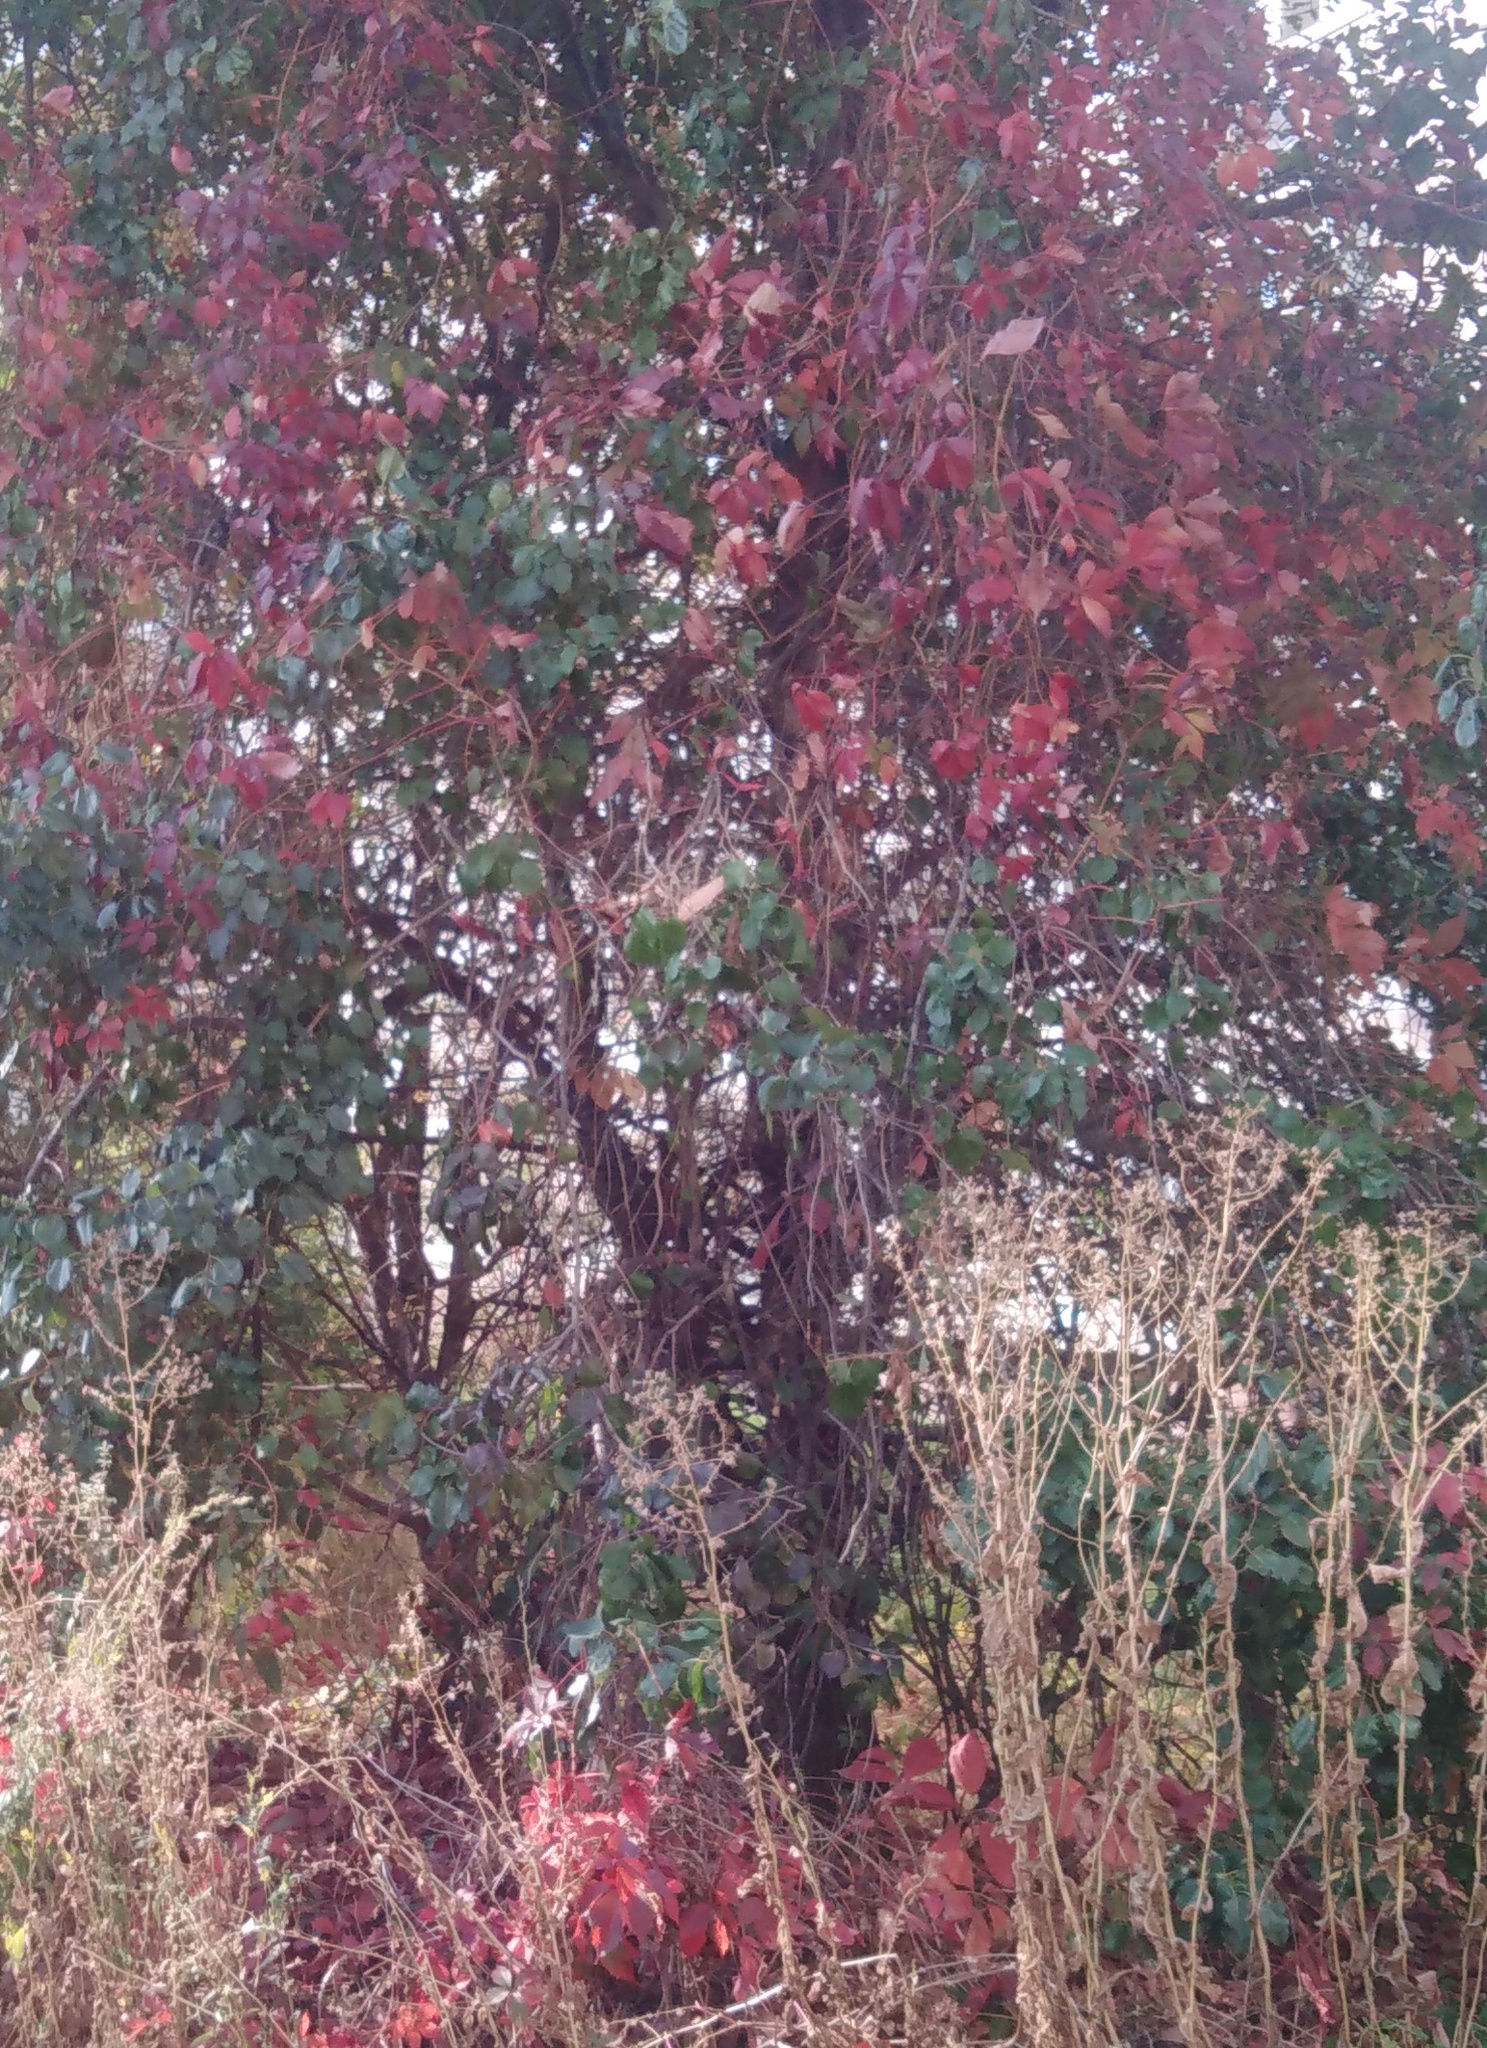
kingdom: Plantae
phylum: Tracheophyta
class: Magnoliopsida
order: Vitales
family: Vitaceae
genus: Parthenocissus
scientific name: Parthenocissus inserta
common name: False virginia-creeper
